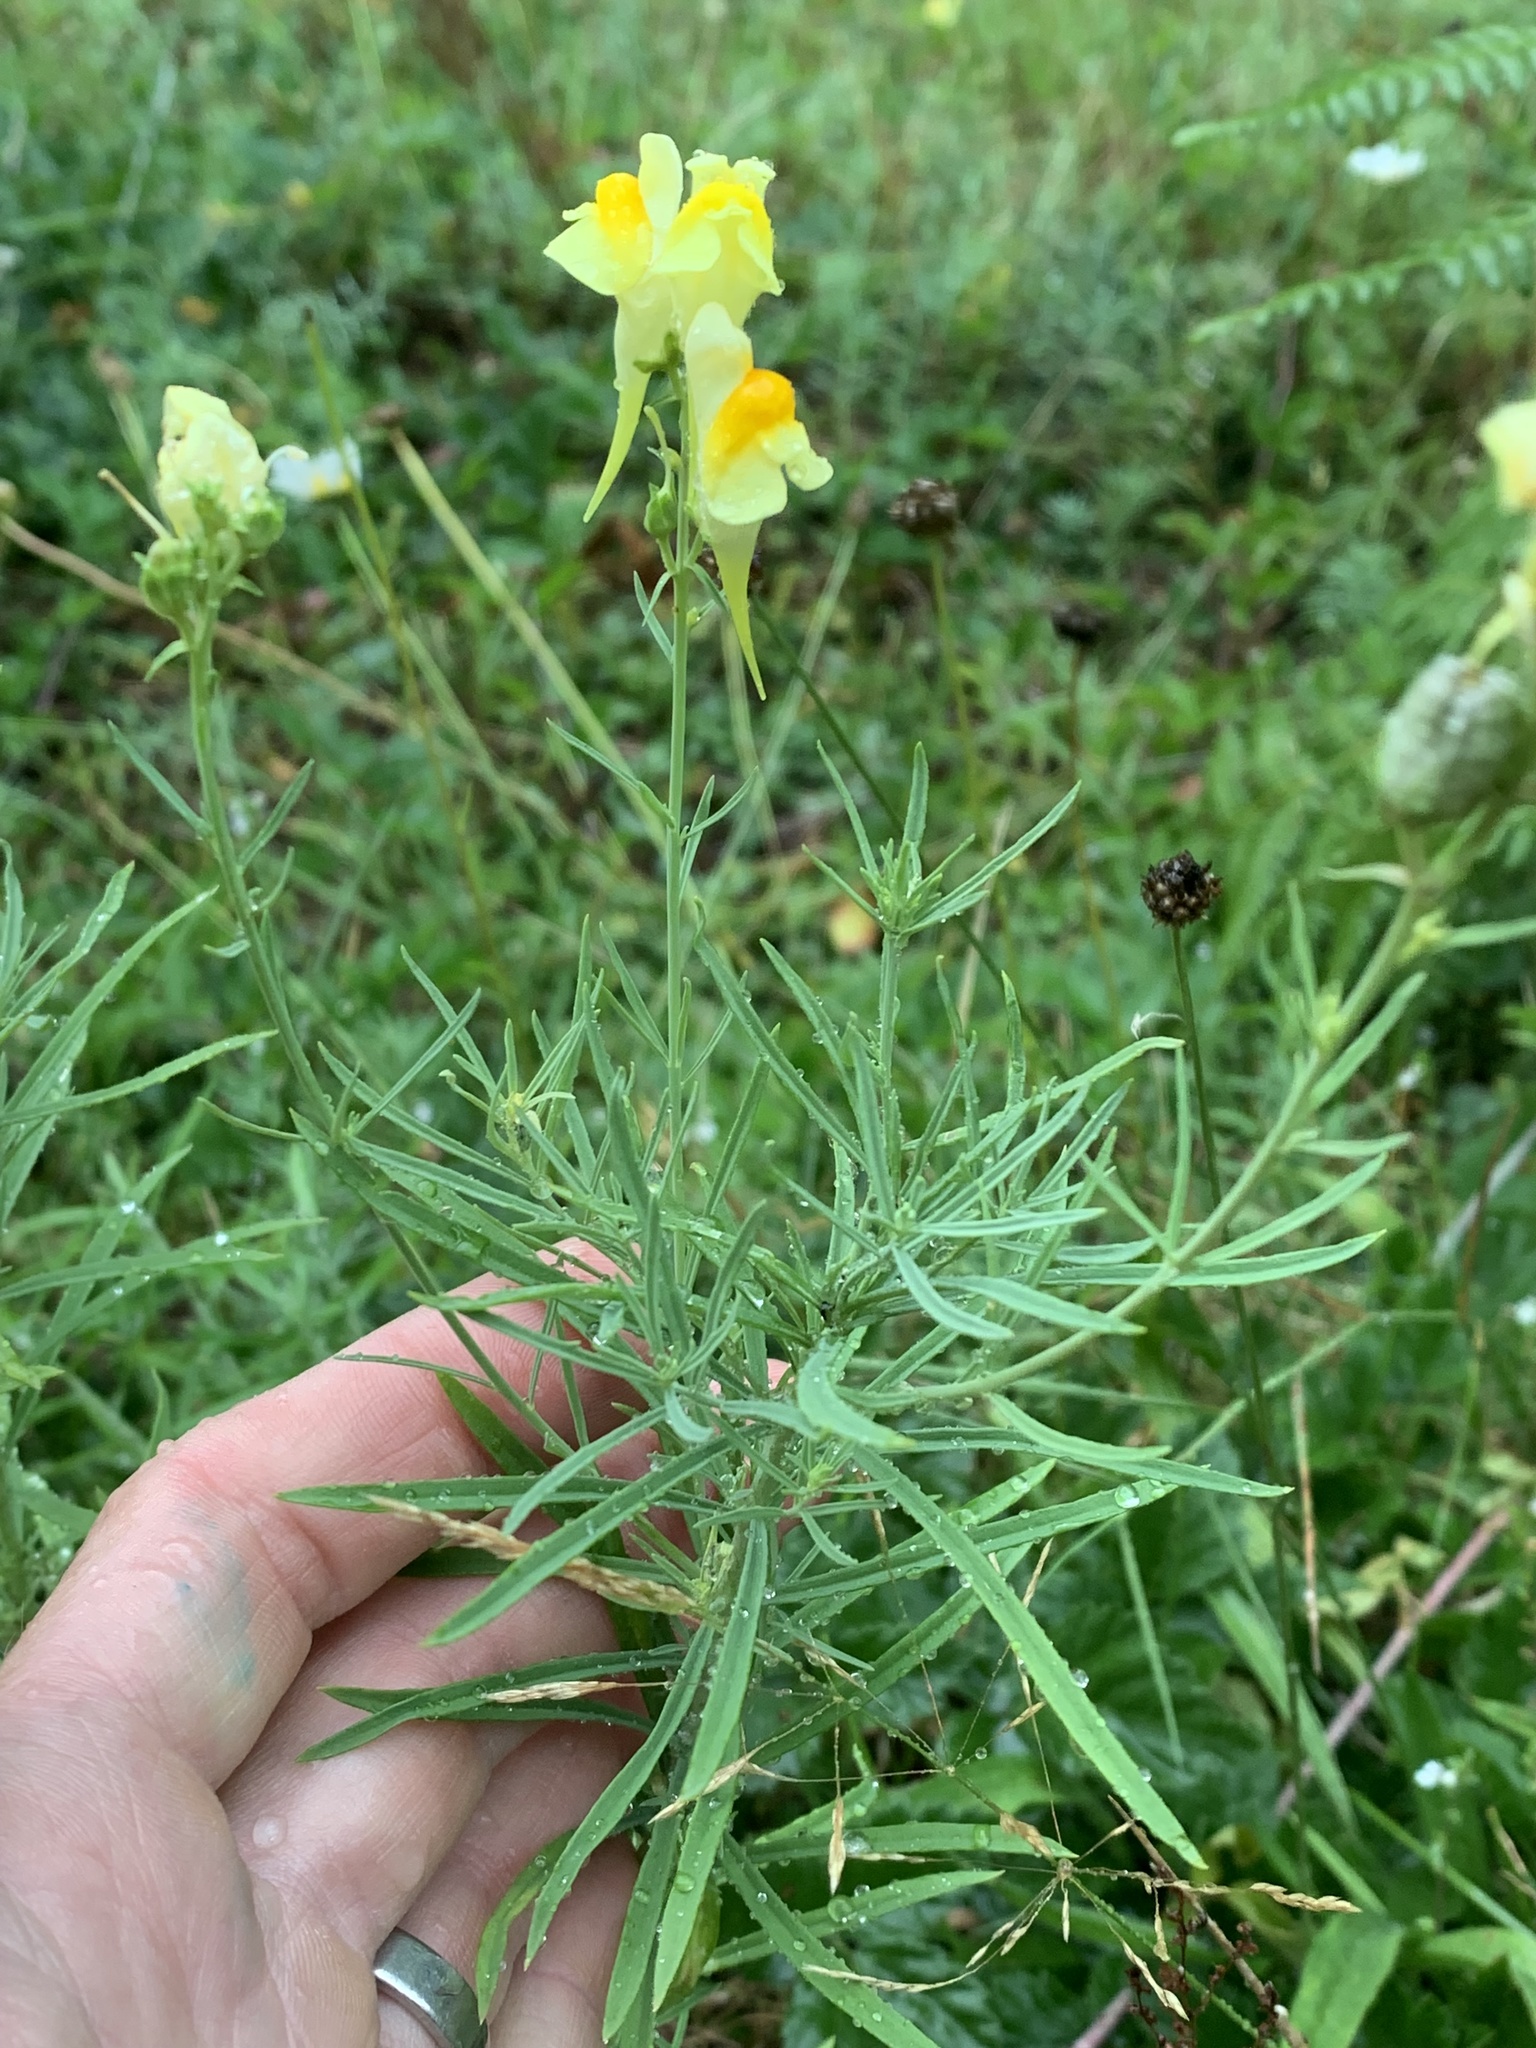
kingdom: Plantae
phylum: Tracheophyta
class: Magnoliopsida
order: Lamiales
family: Plantaginaceae
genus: Linaria
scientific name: Linaria vulgaris
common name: Butter and eggs
